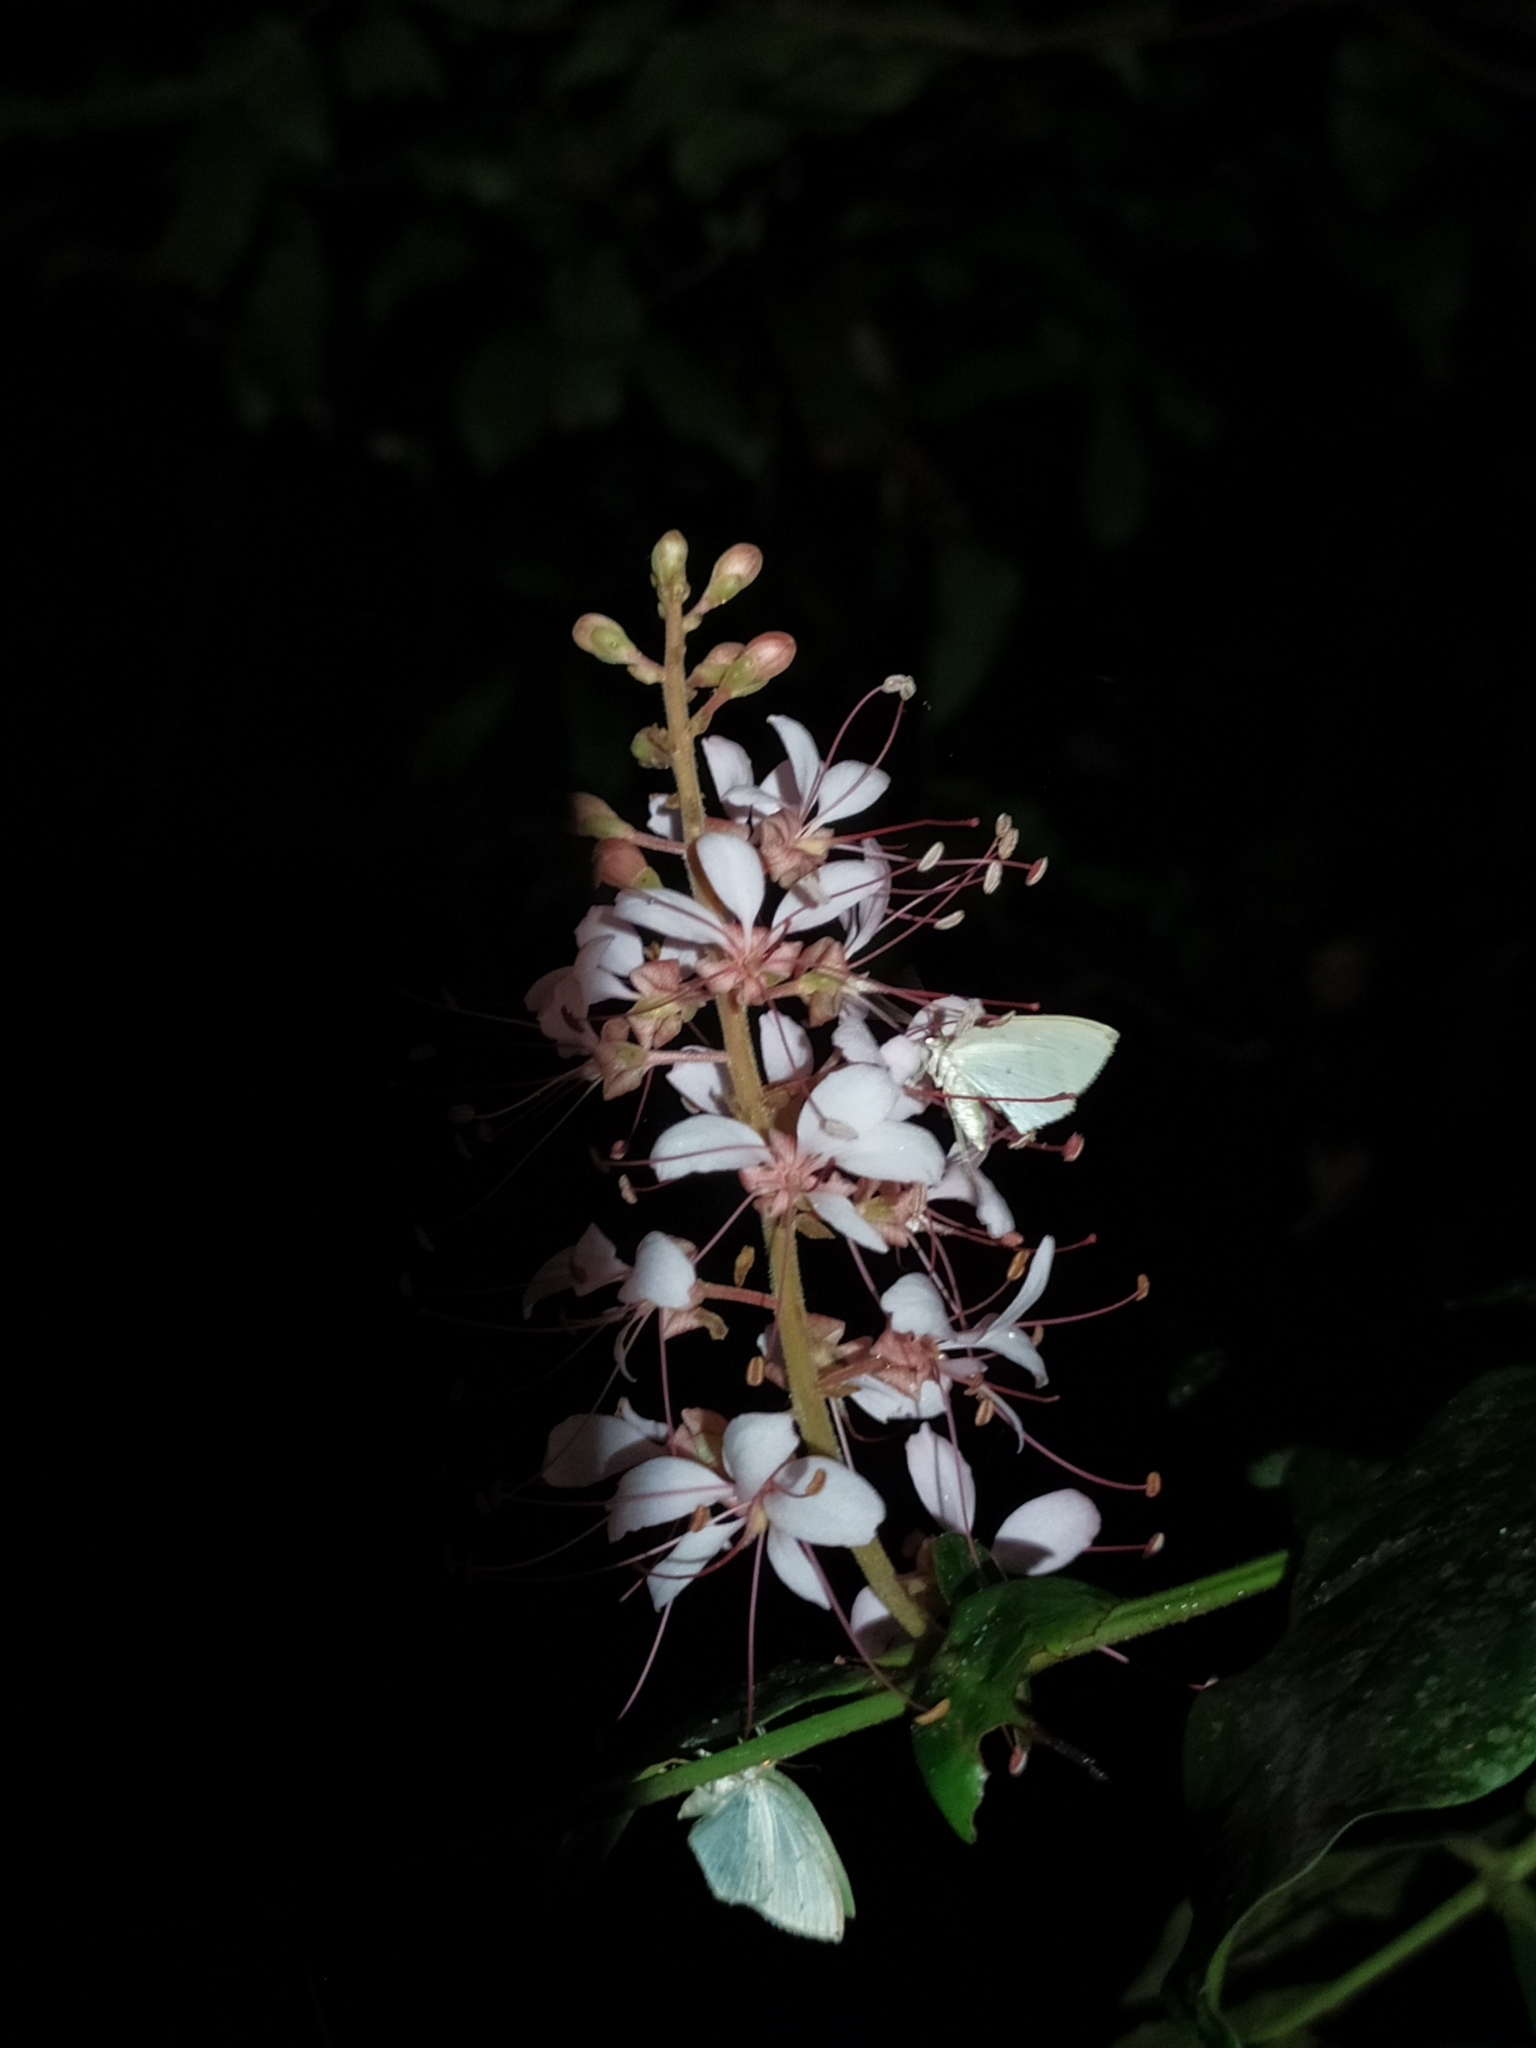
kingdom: Plantae
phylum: Tracheophyta
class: Magnoliopsida
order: Fabales
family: Fabaceae
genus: Humboldtia
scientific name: Humboldtia brunonis
